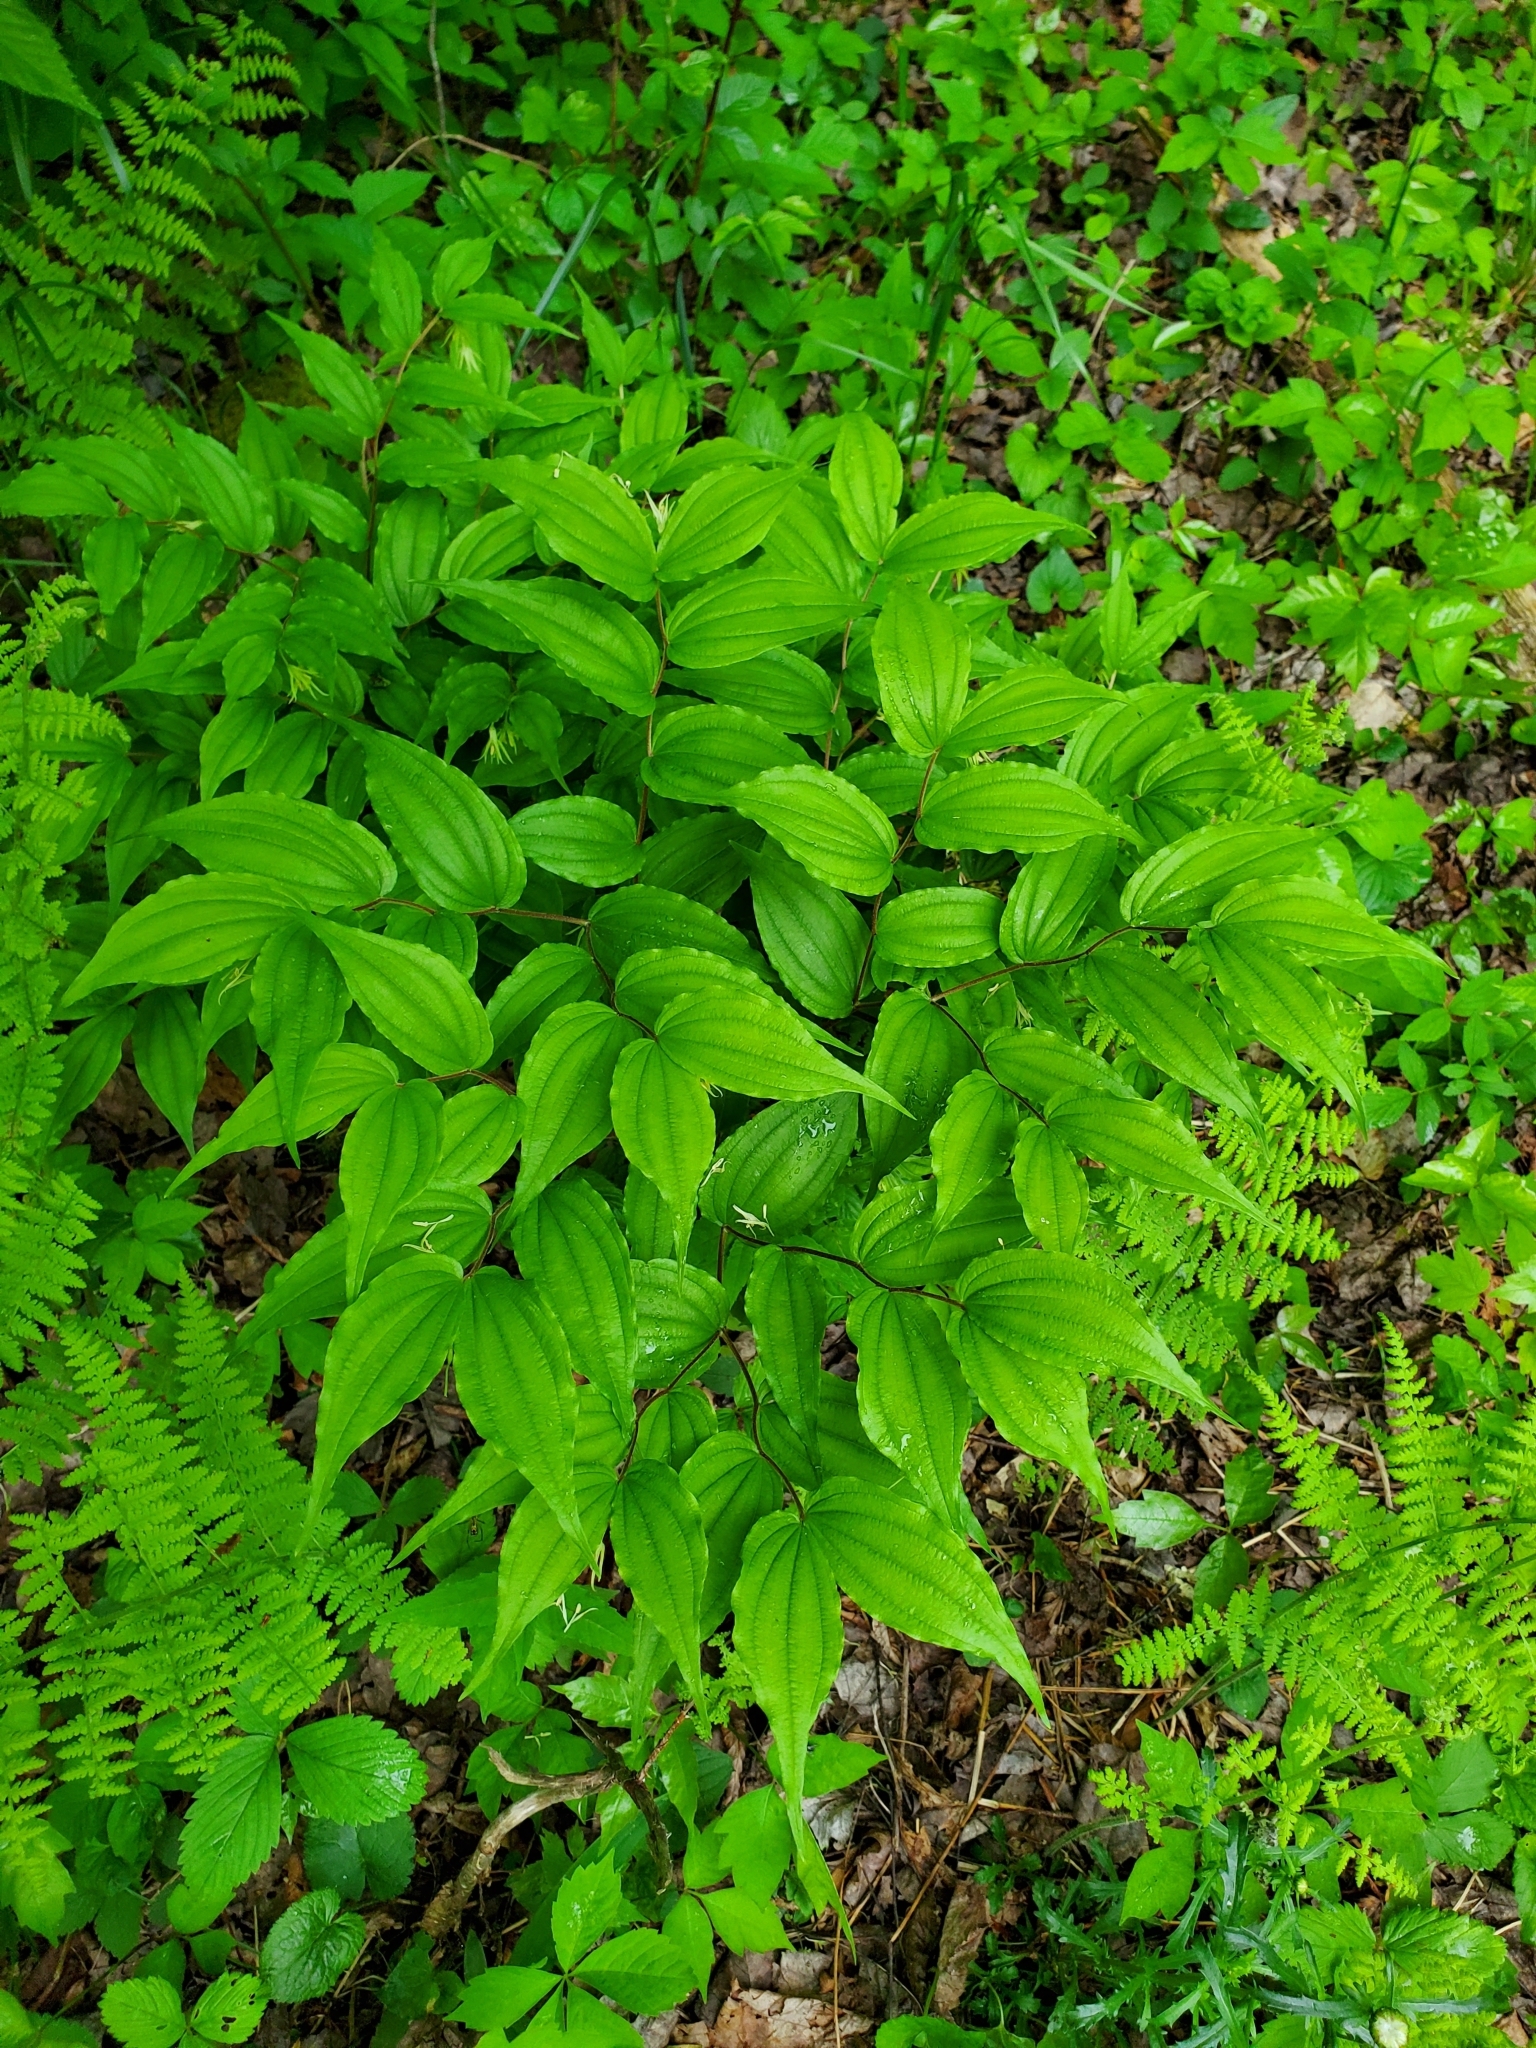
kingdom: Plantae
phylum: Tracheophyta
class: Liliopsida
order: Liliales
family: Liliaceae
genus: Prosartes
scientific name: Prosartes lanuginosa
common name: Hairy mandarin
